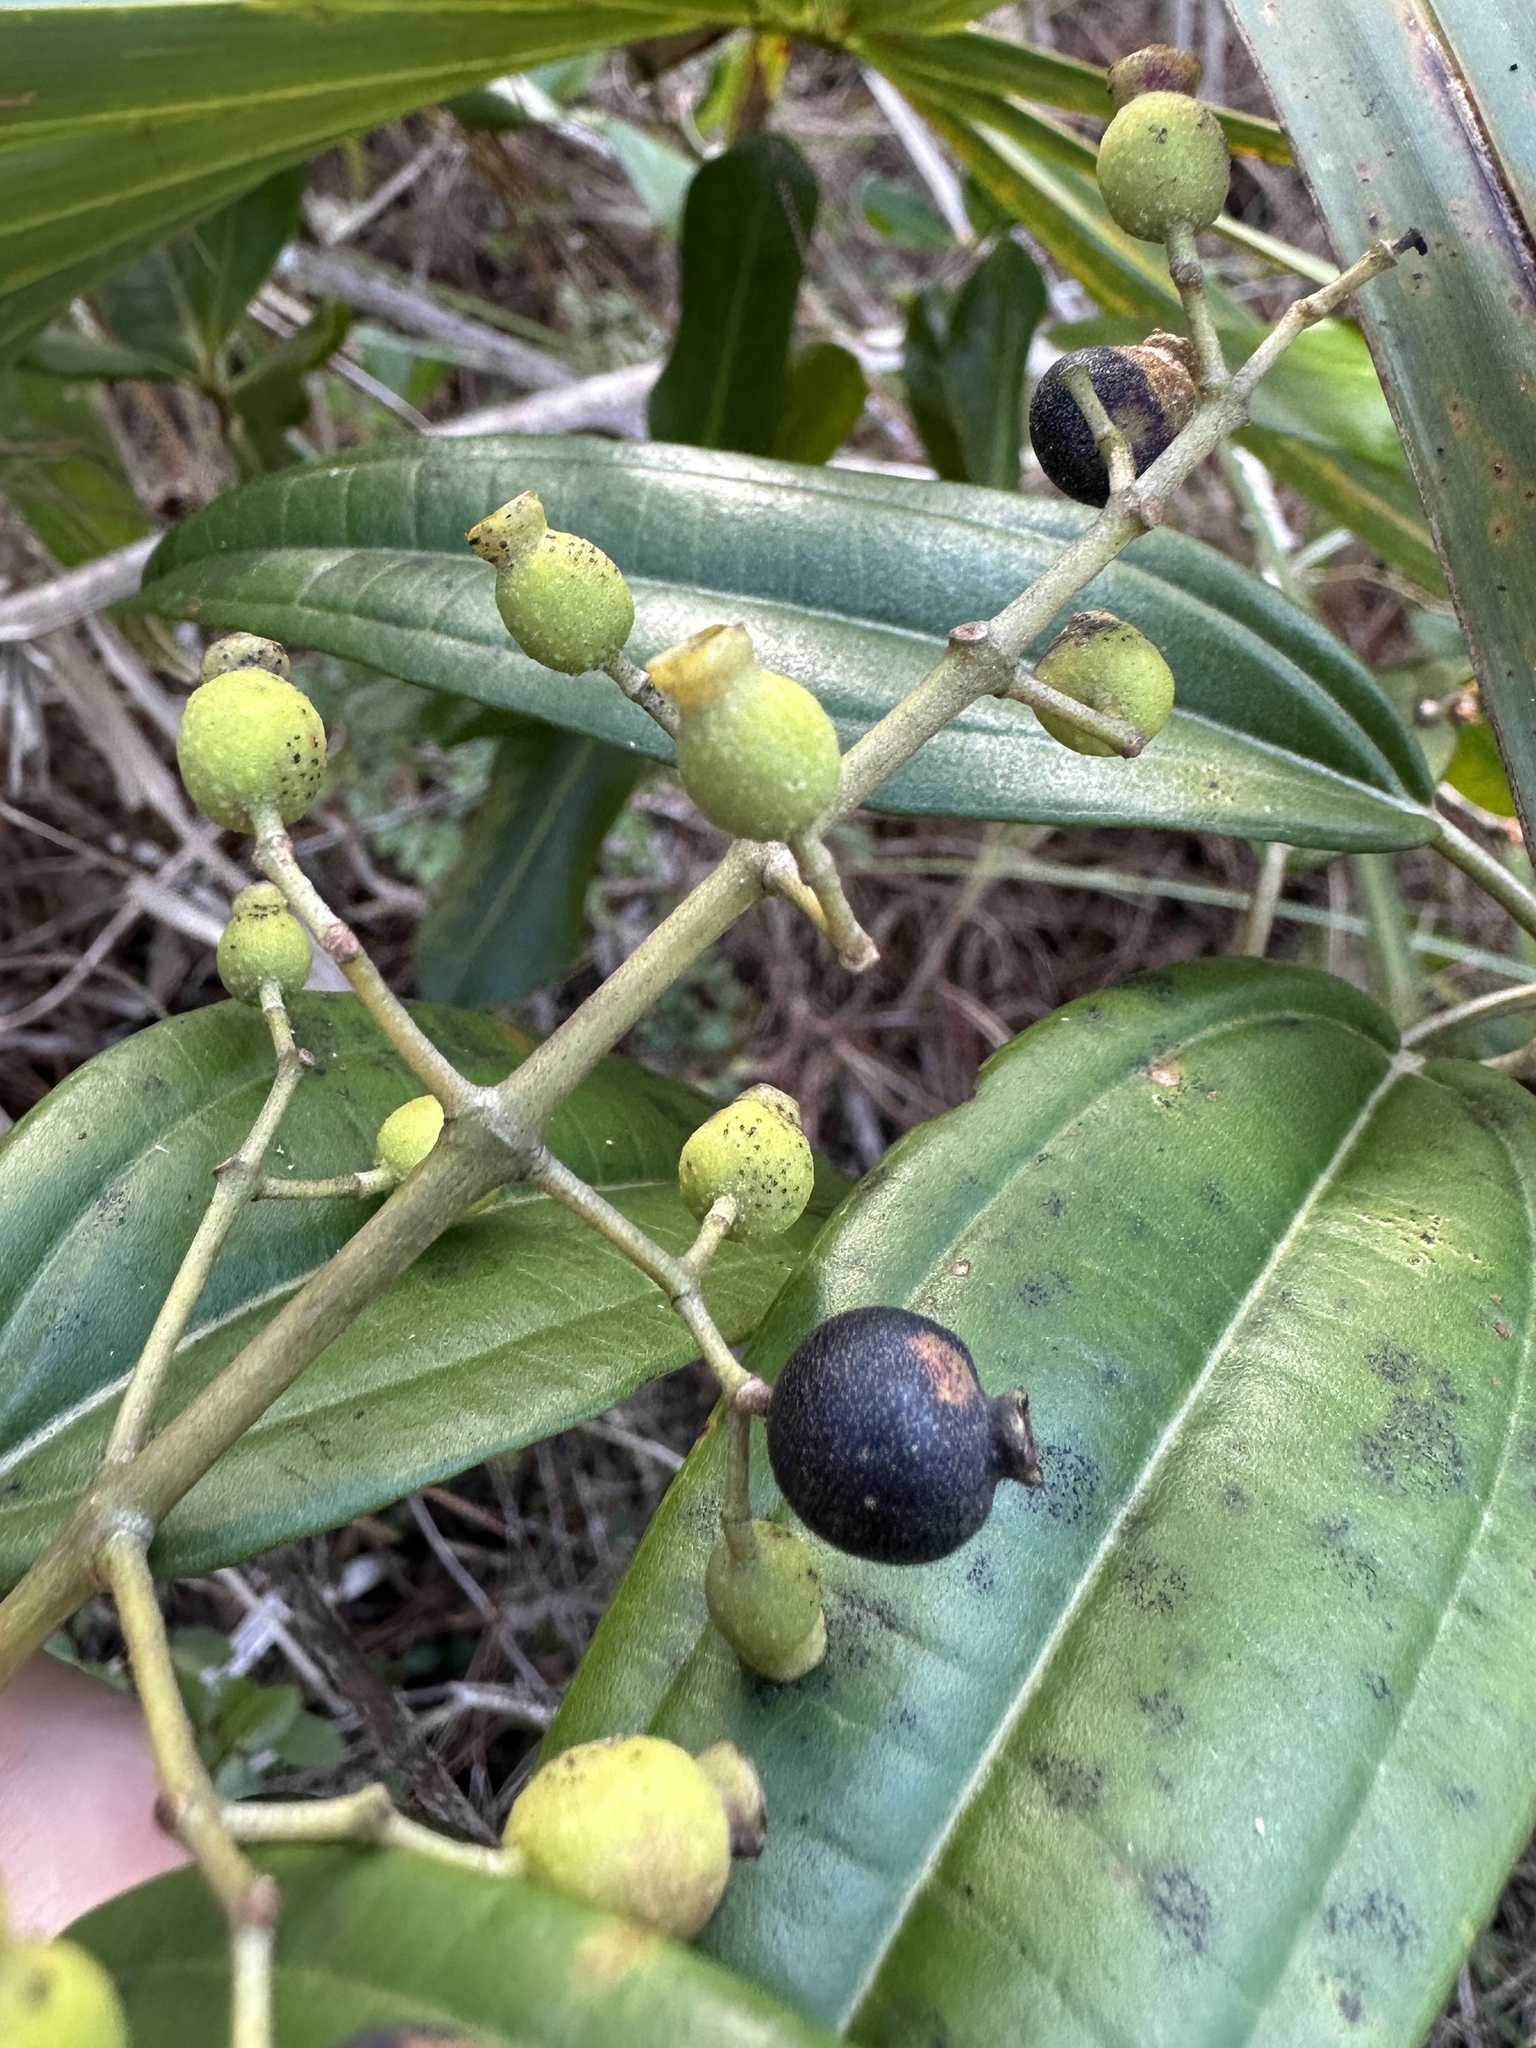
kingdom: Plantae
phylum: Tracheophyta
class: Magnoliopsida
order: Myrtales
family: Melastomataceae
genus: Miconia
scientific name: Miconia bicolor
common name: Johnnyberry
